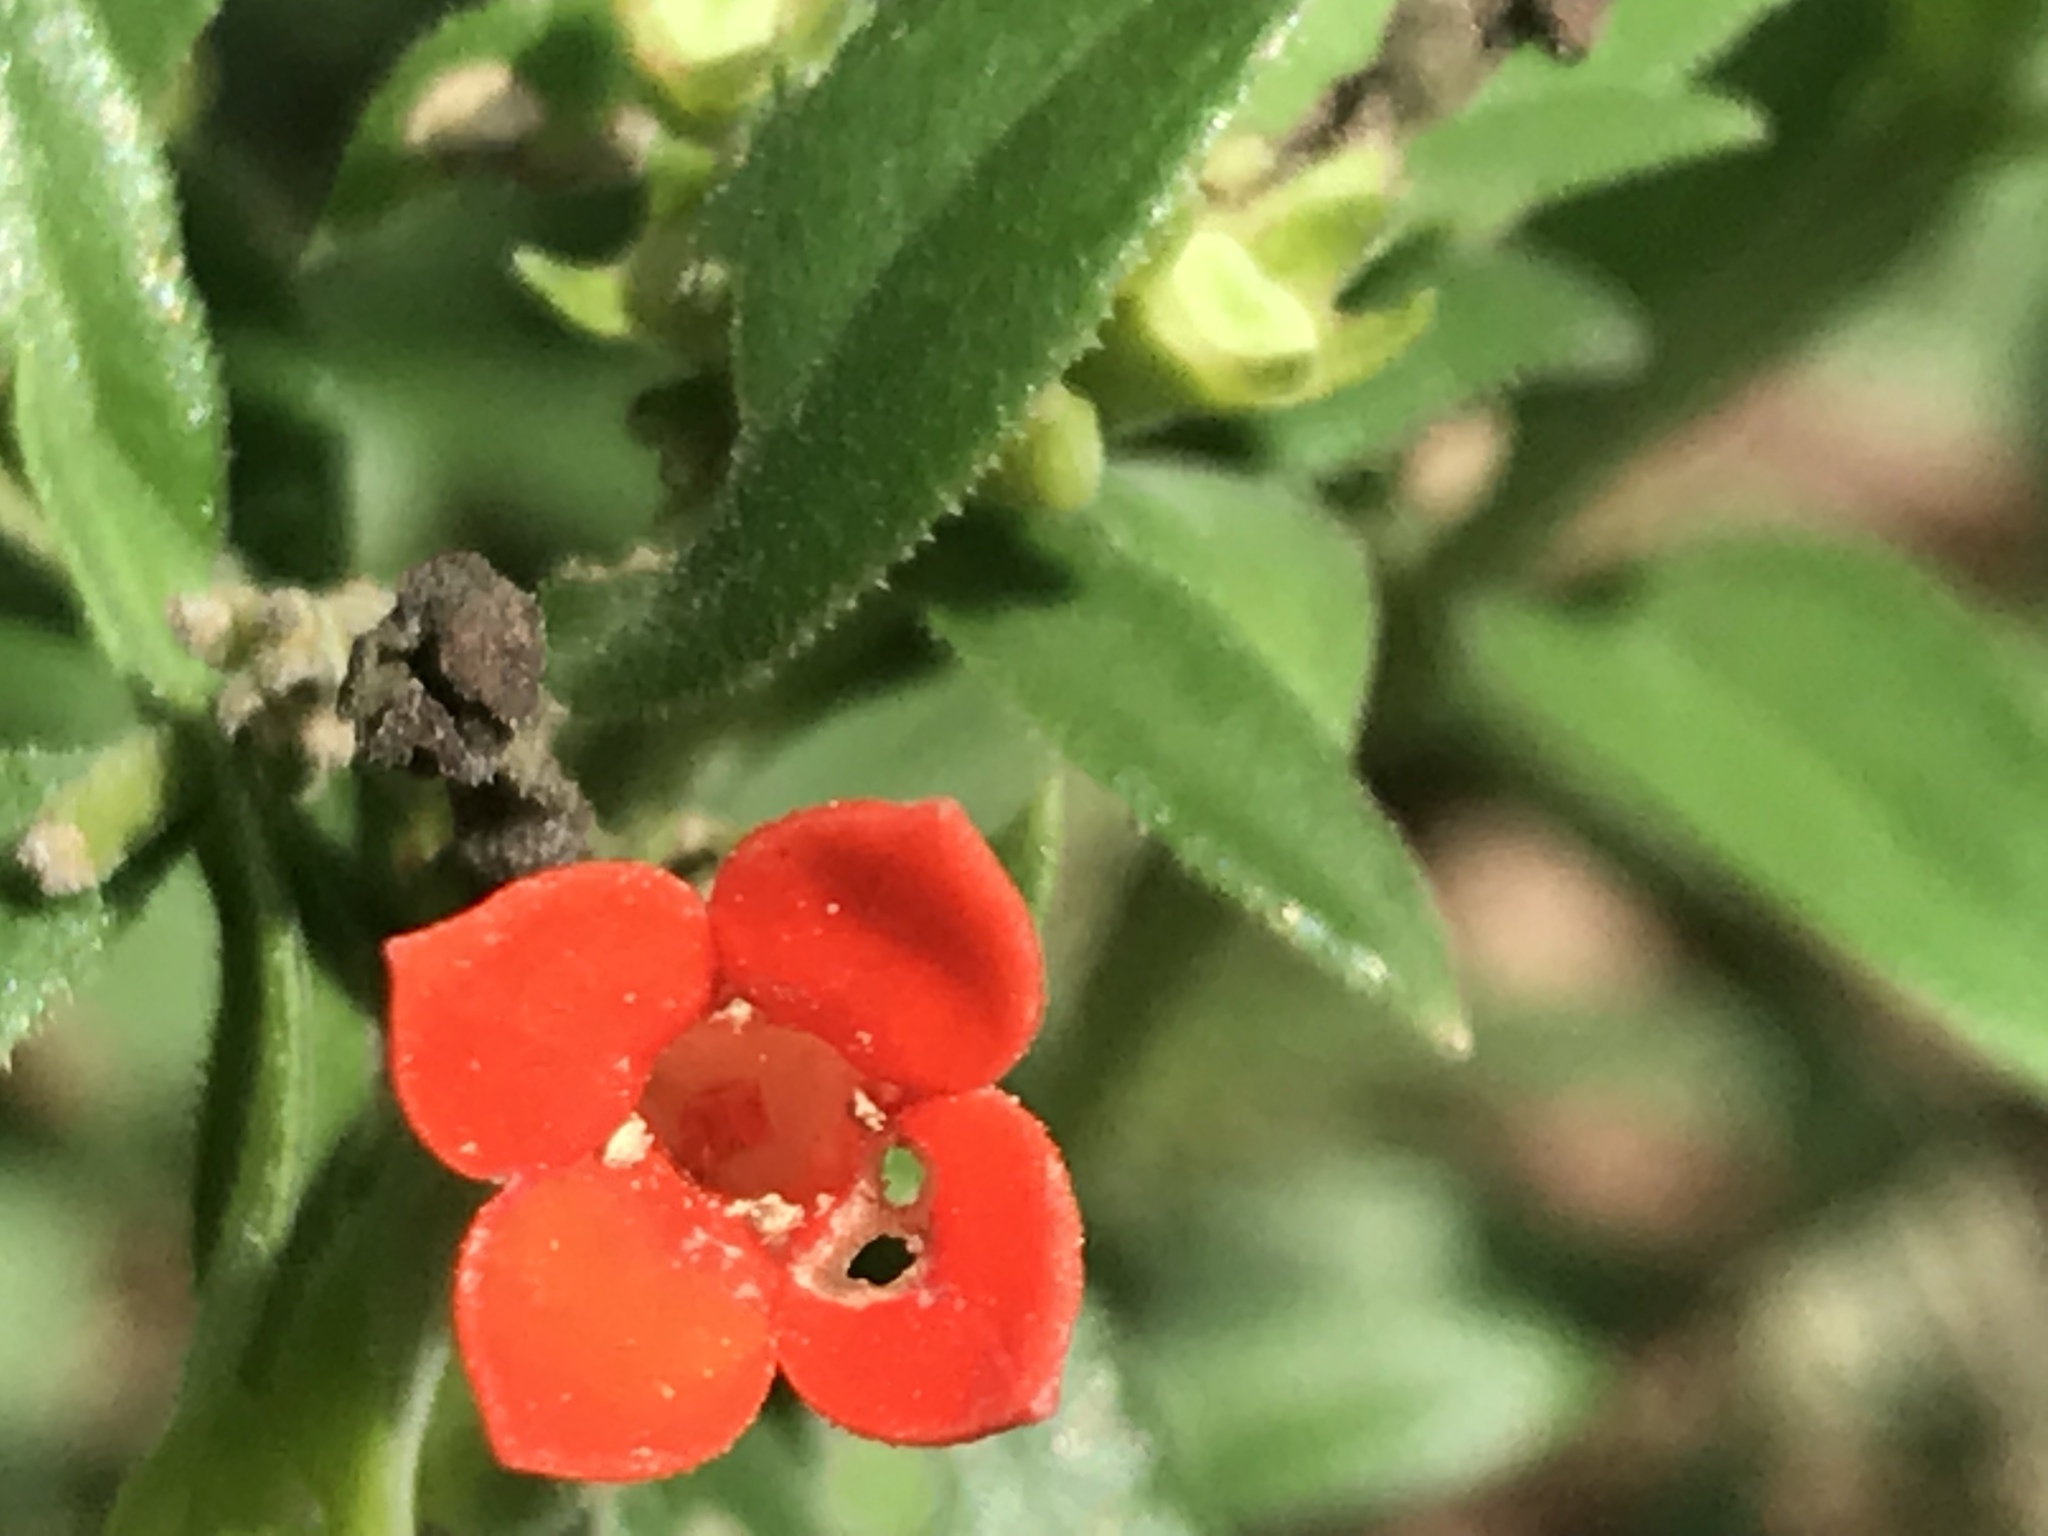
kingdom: Plantae
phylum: Tracheophyta
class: Magnoliopsida
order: Gentianales
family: Rubiaceae
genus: Bouvardia
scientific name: Bouvardia ternifolia
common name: Scarlet bouvardia
